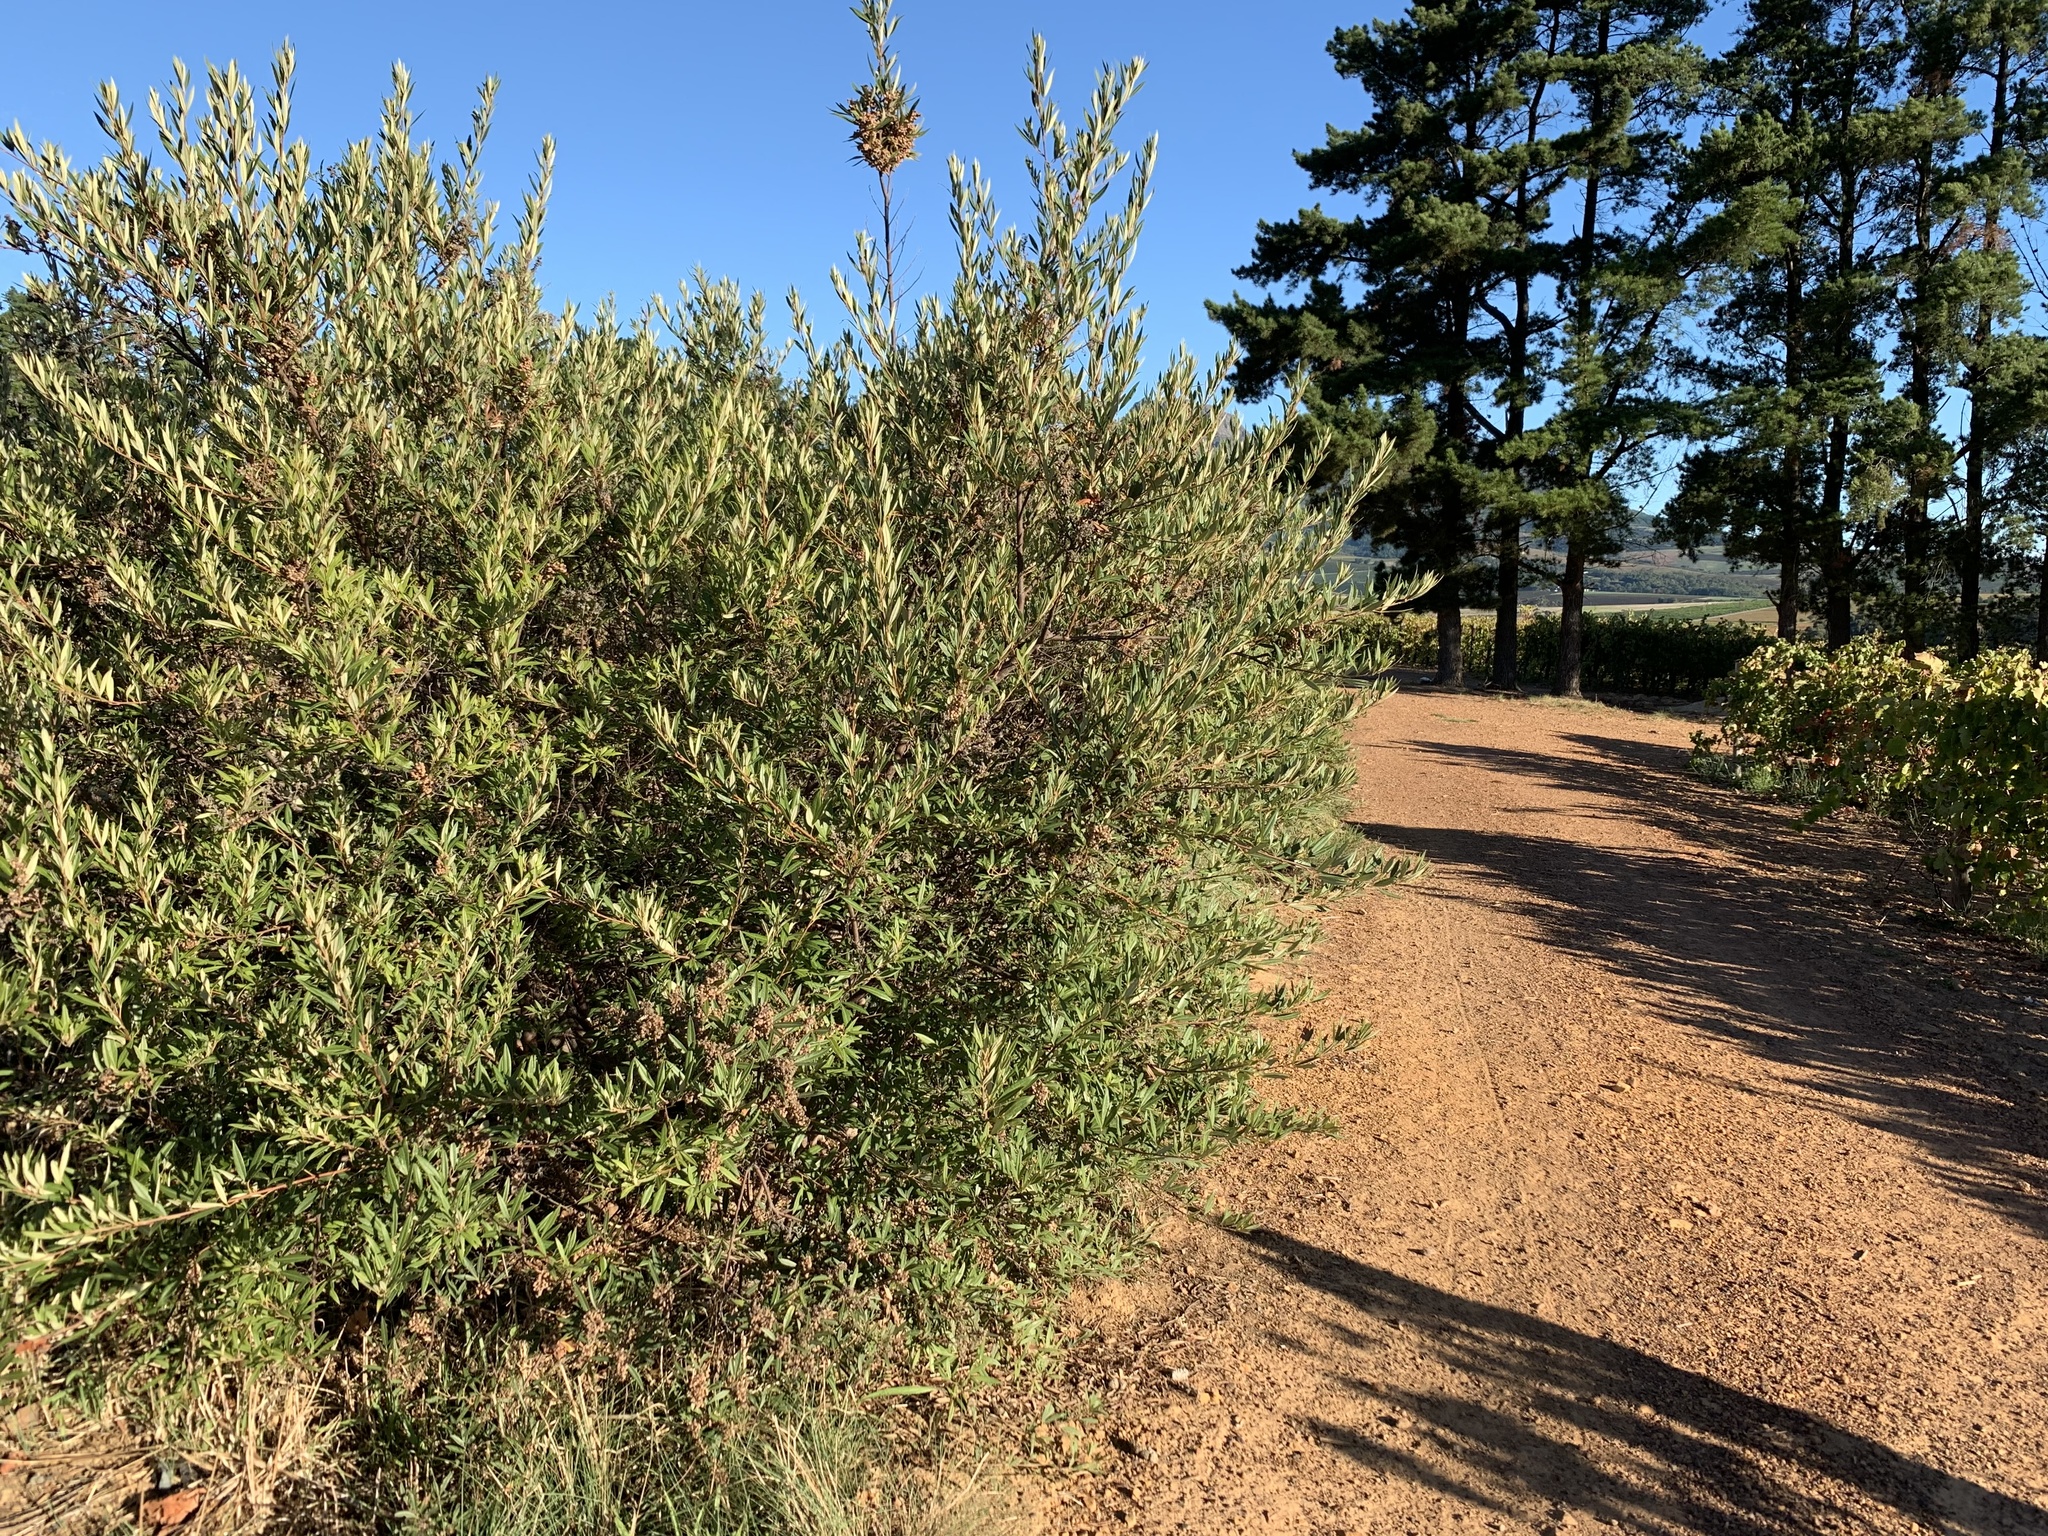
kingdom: Plantae
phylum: Tracheophyta
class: Magnoliopsida
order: Sapindales
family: Anacardiaceae
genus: Searsia
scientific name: Searsia angustifolia
